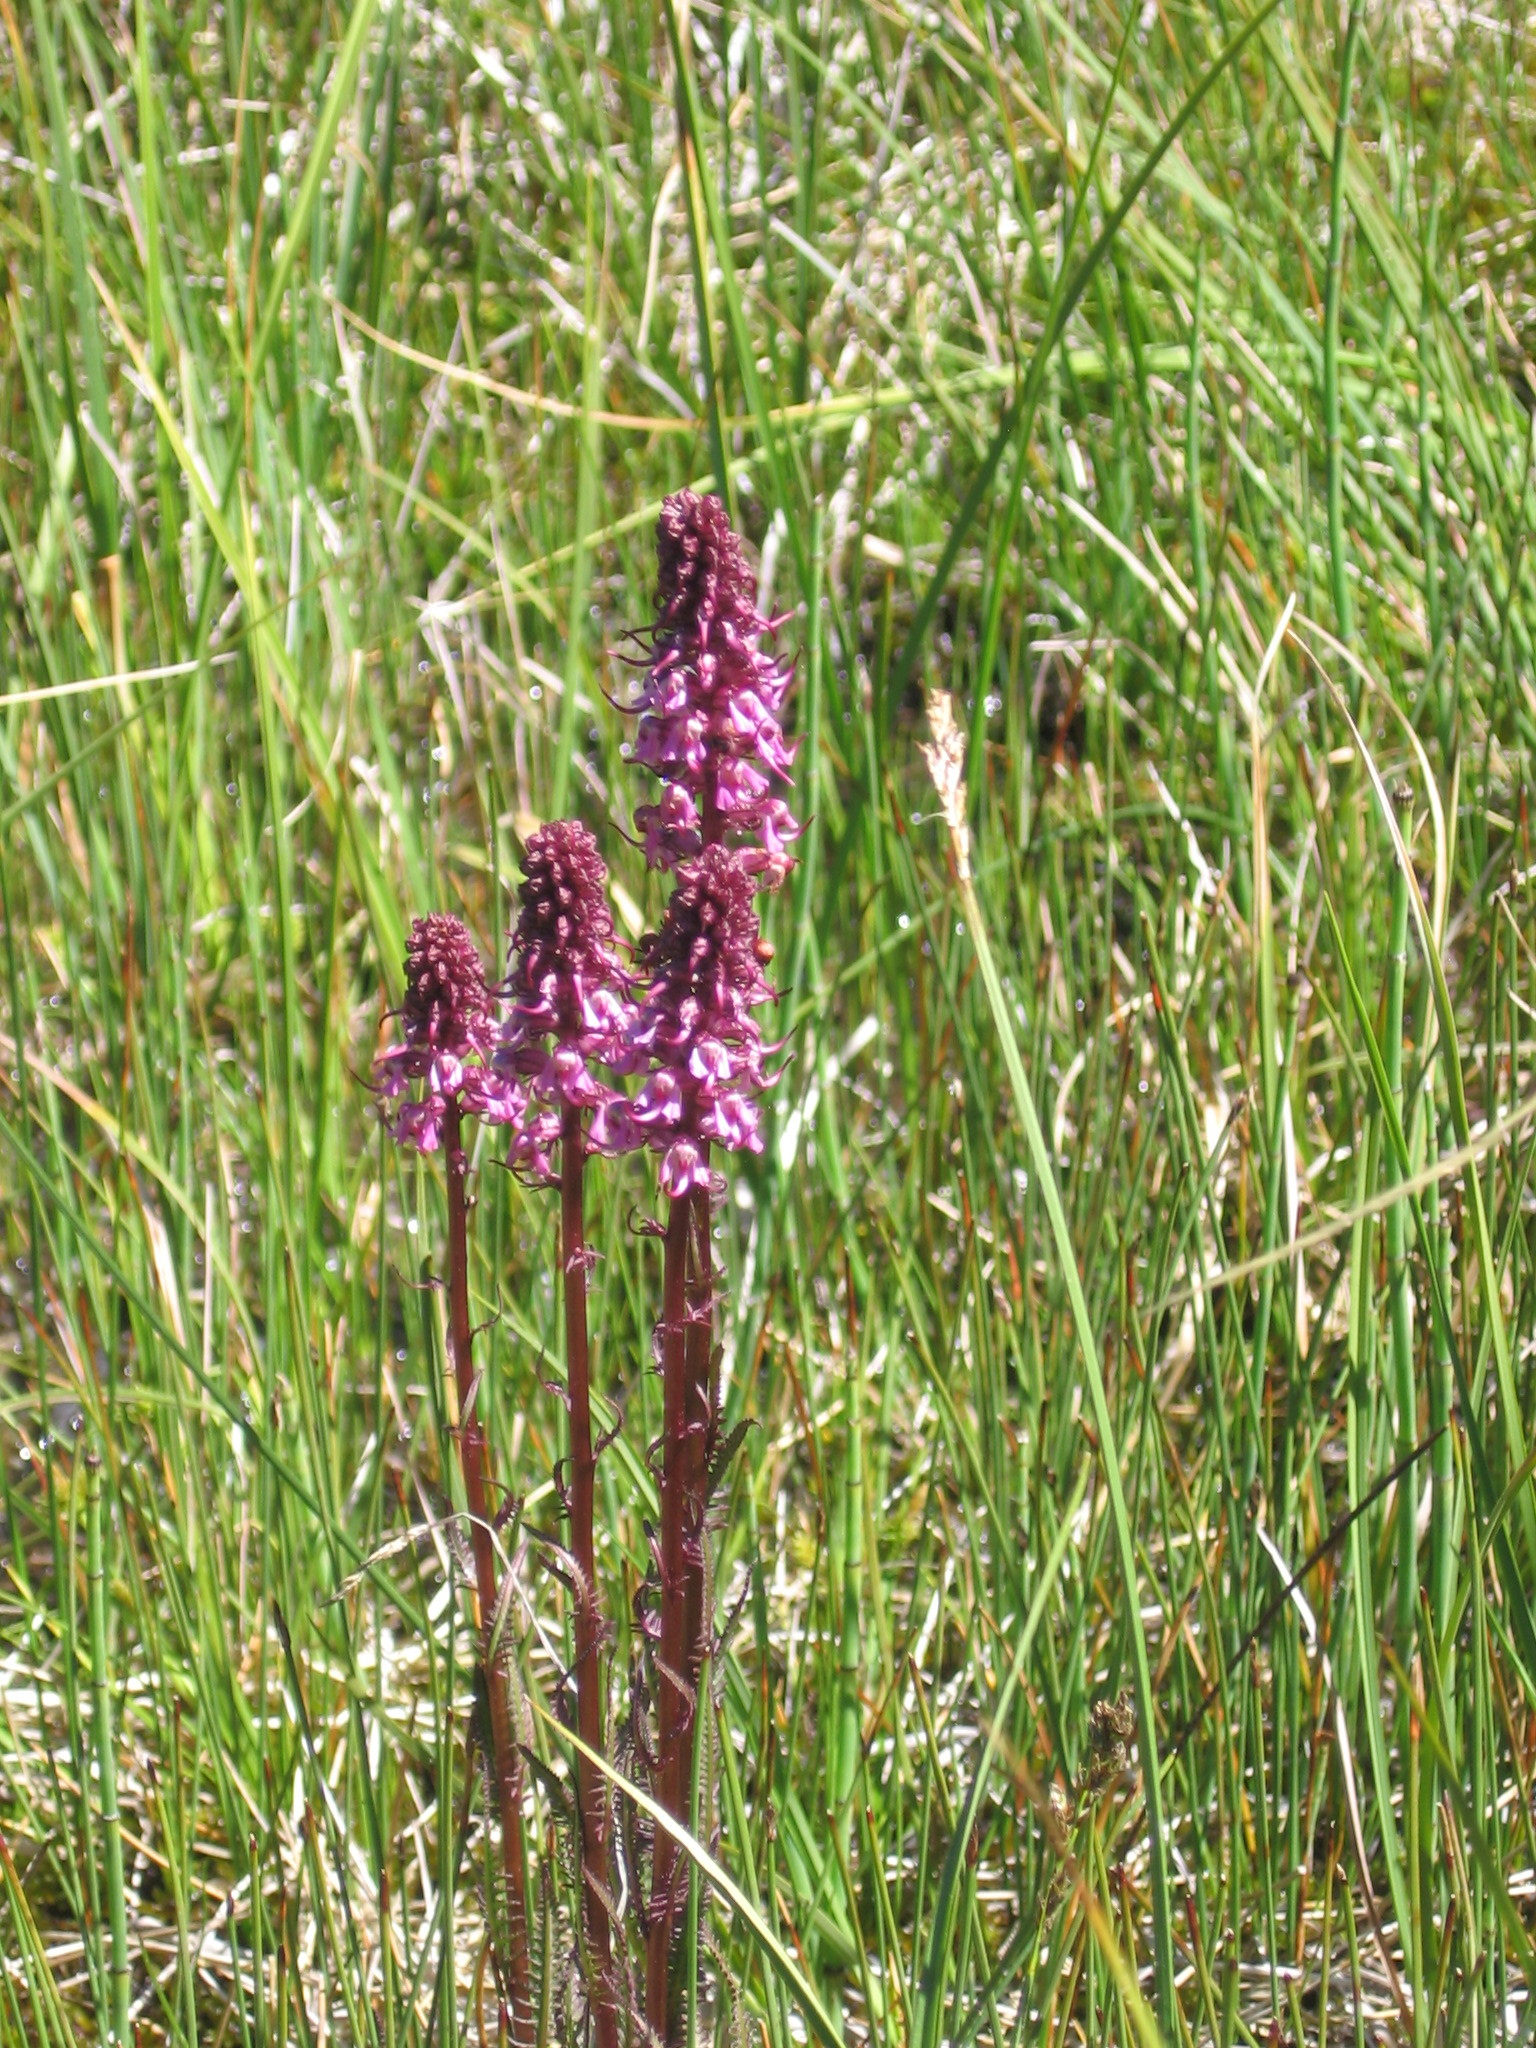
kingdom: Plantae
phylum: Tracheophyta
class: Magnoliopsida
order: Lamiales
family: Orobanchaceae
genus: Pedicularis
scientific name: Pedicularis groenlandica
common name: Elephant's-head
